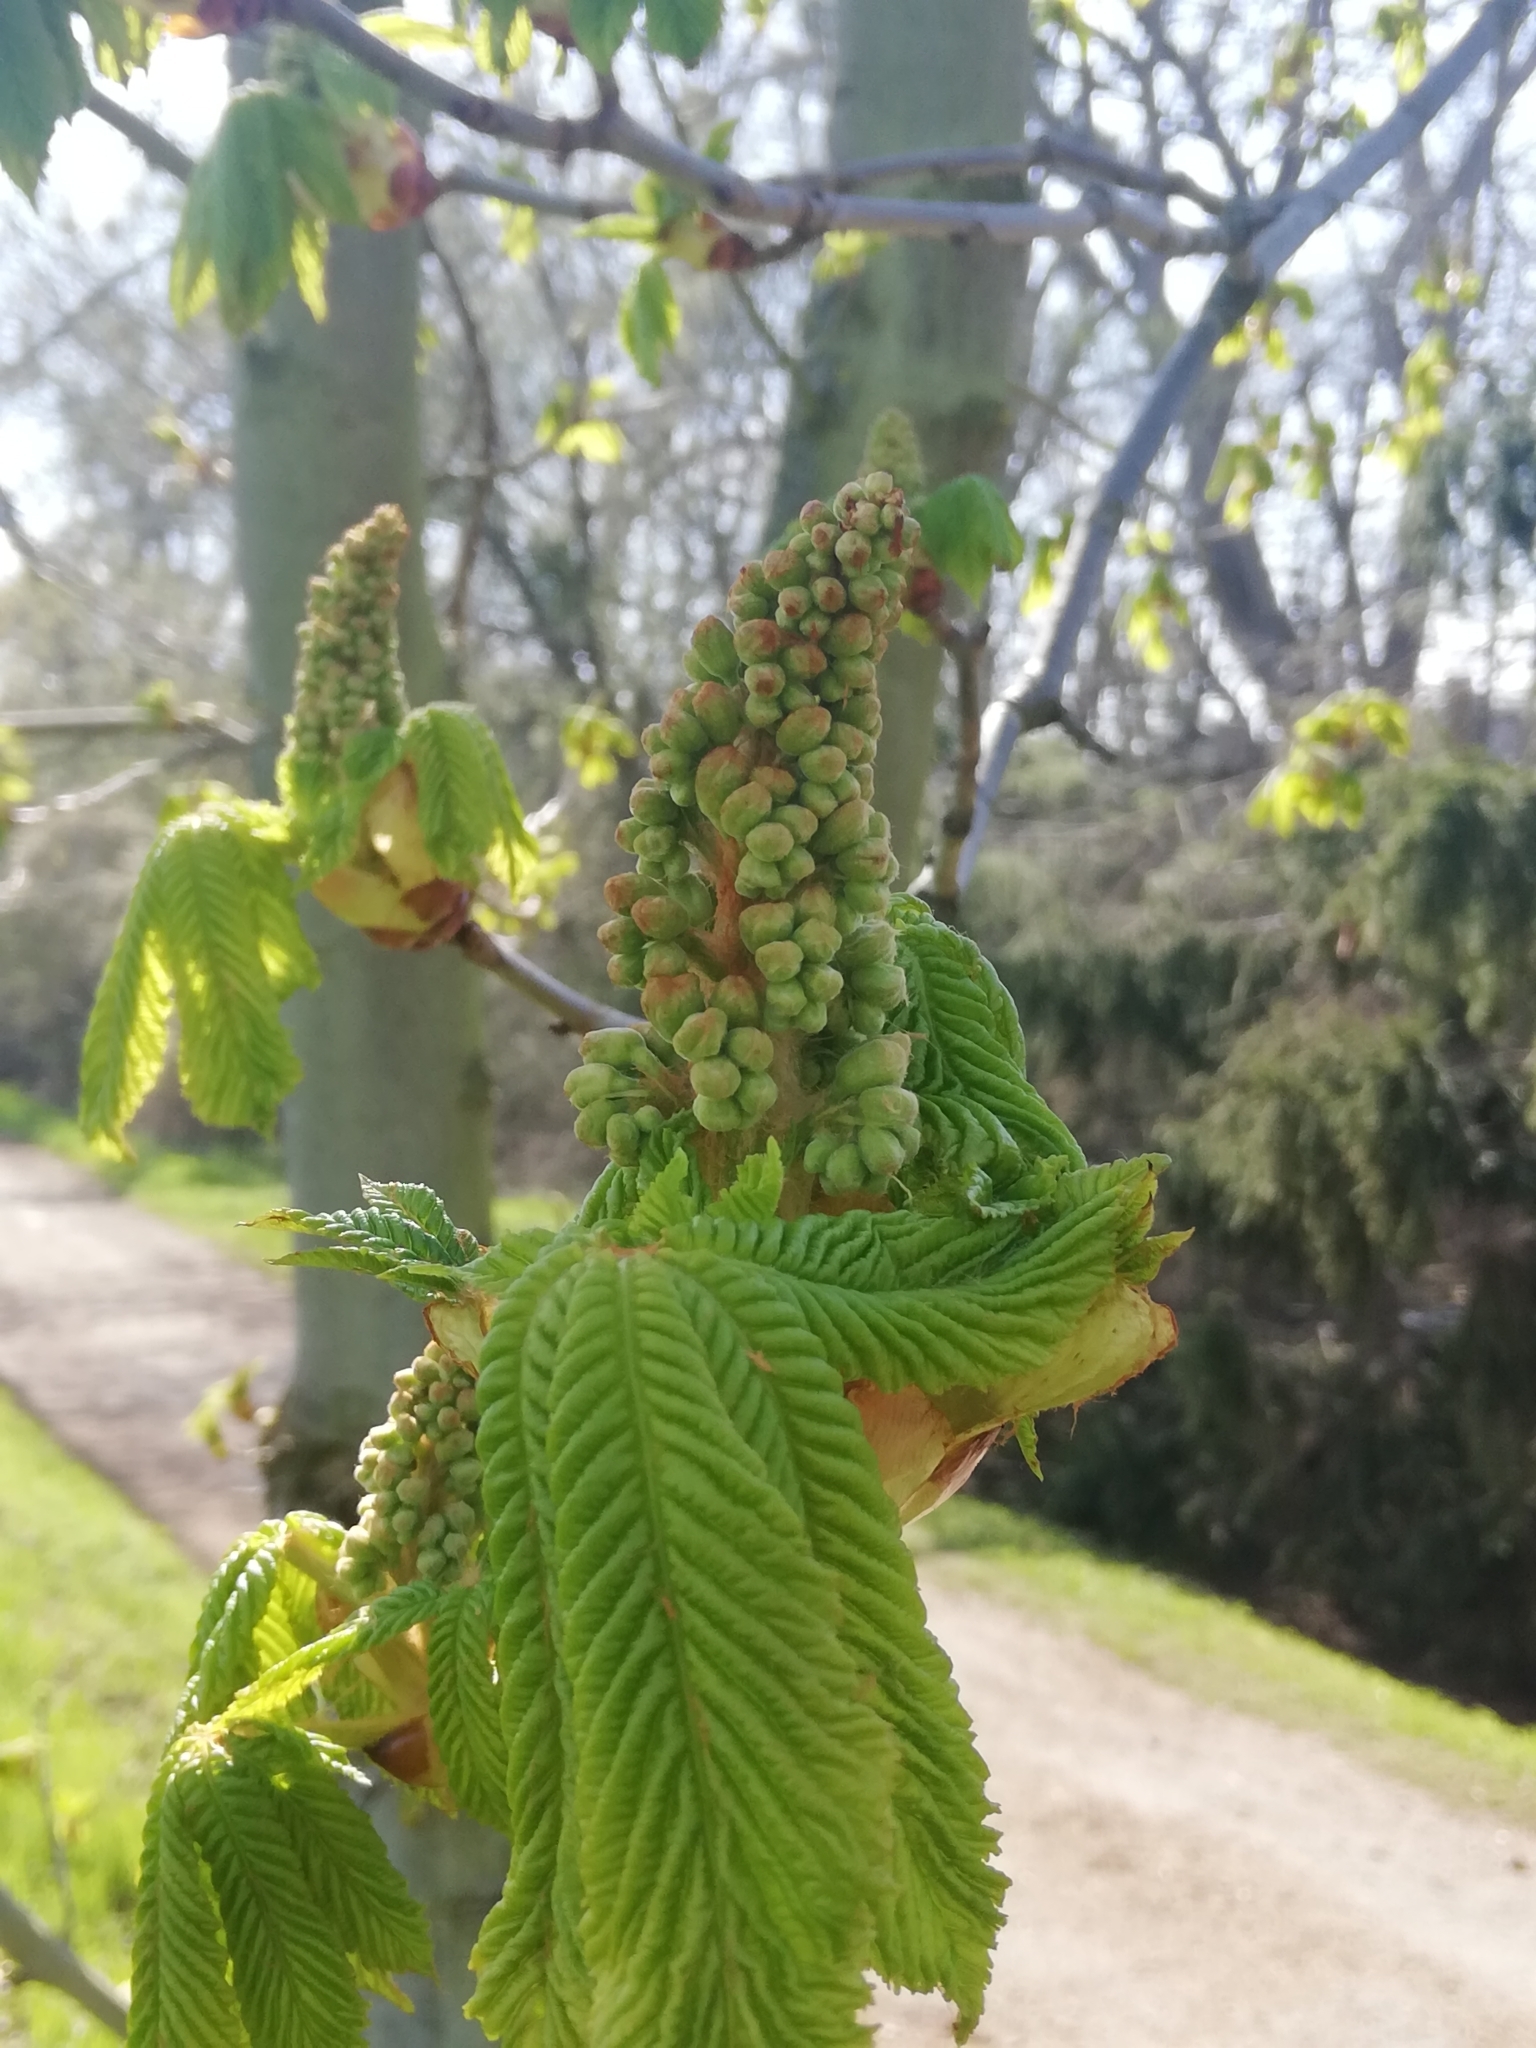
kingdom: Plantae
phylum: Tracheophyta
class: Magnoliopsida
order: Sapindales
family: Sapindaceae
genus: Aesculus
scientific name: Aesculus hippocastanum
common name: Horse-chestnut
